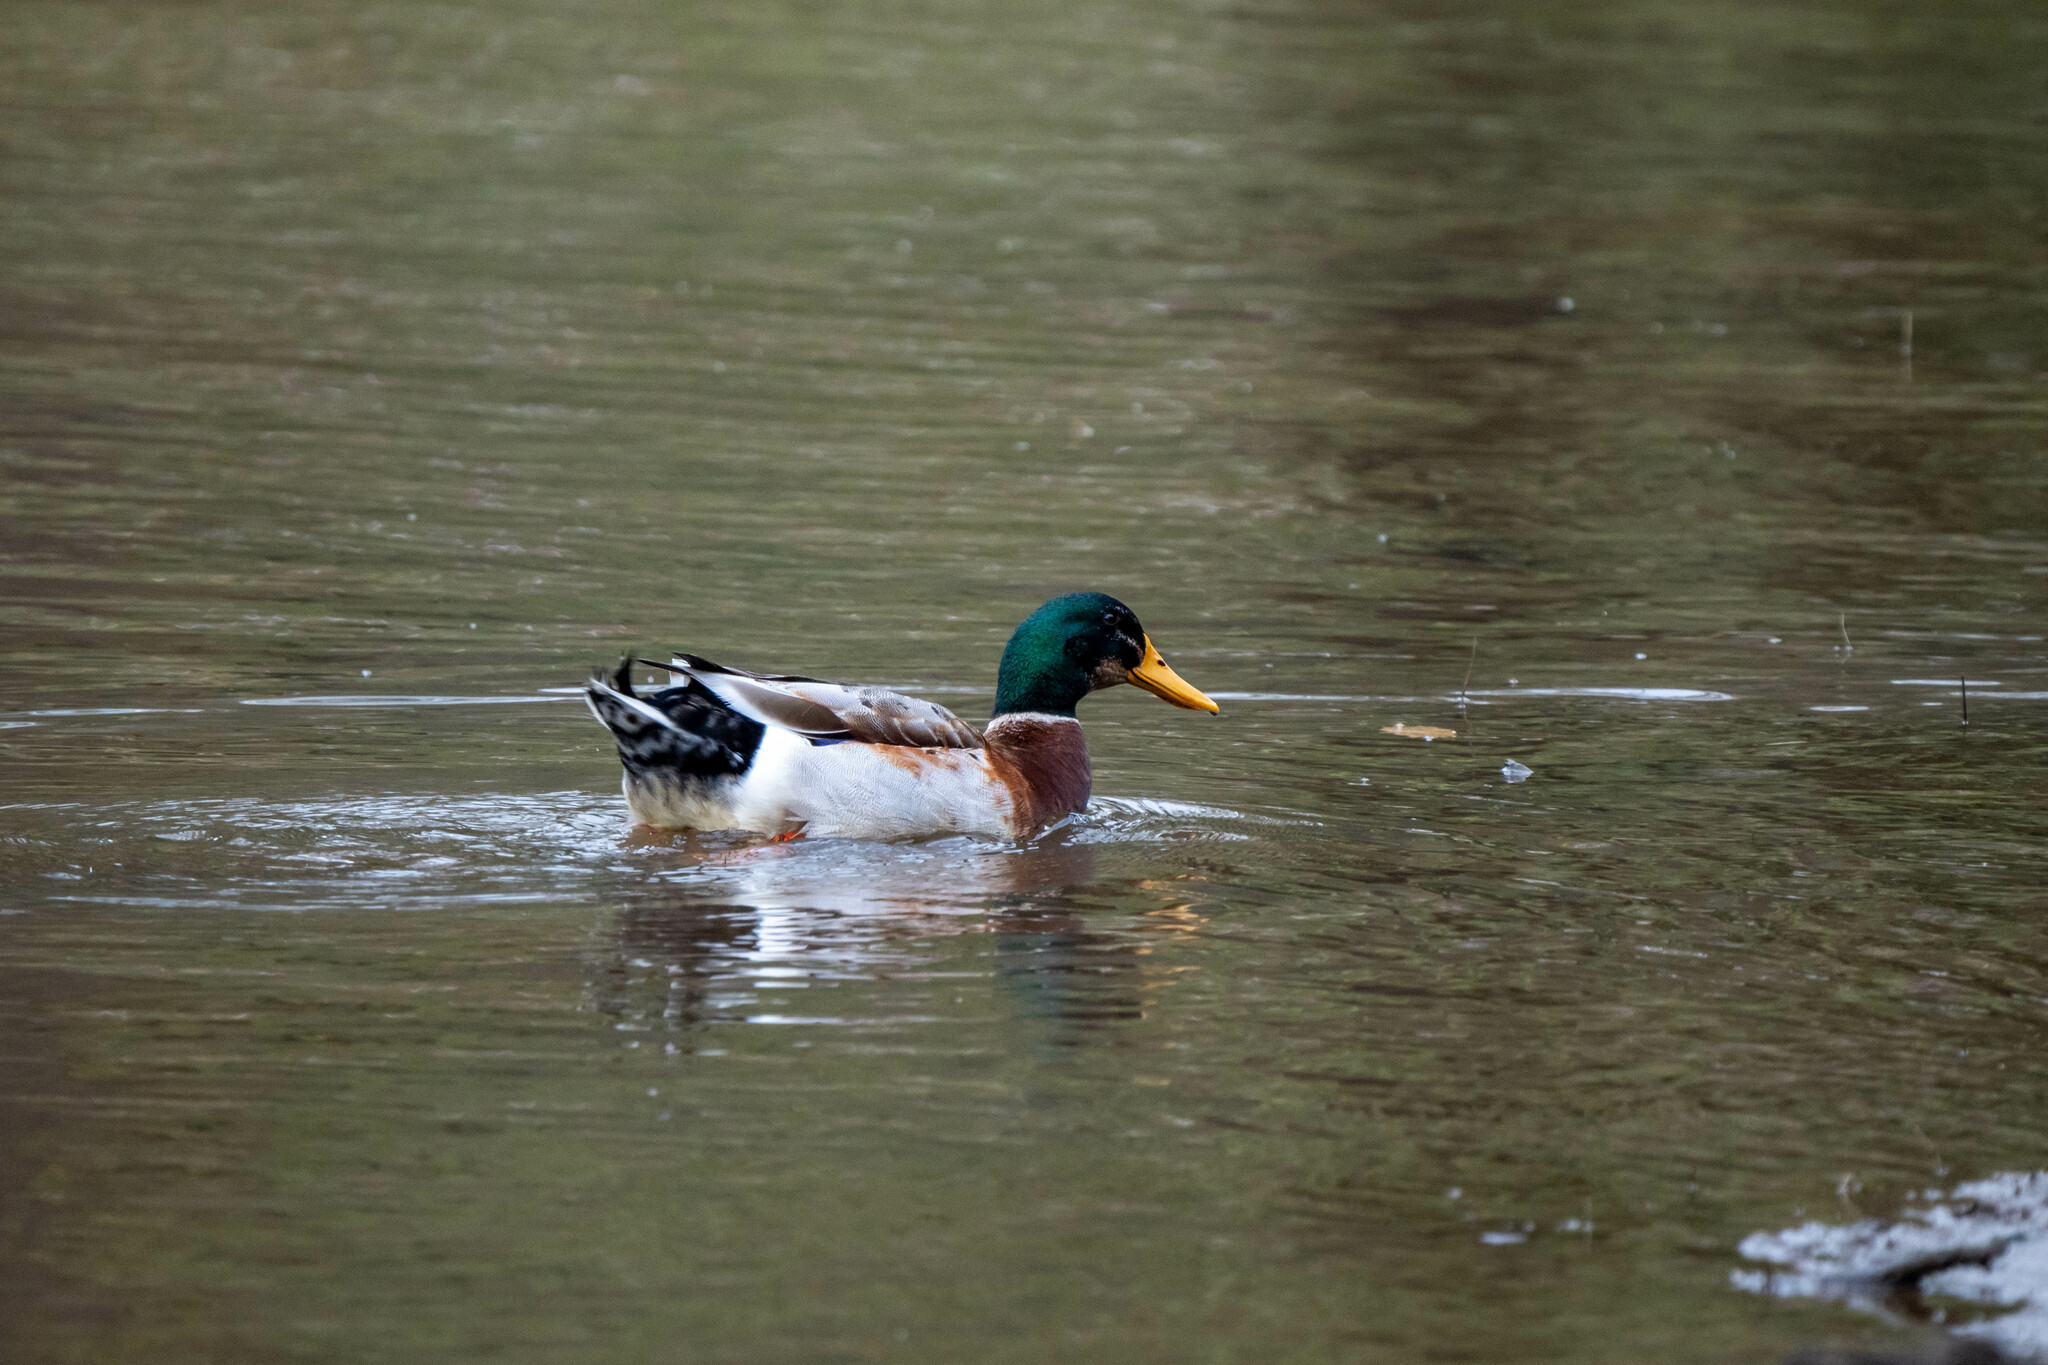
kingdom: Animalia
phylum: Chordata
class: Aves
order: Anseriformes
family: Anatidae
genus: Anas
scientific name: Anas platyrhynchos
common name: Mallard
